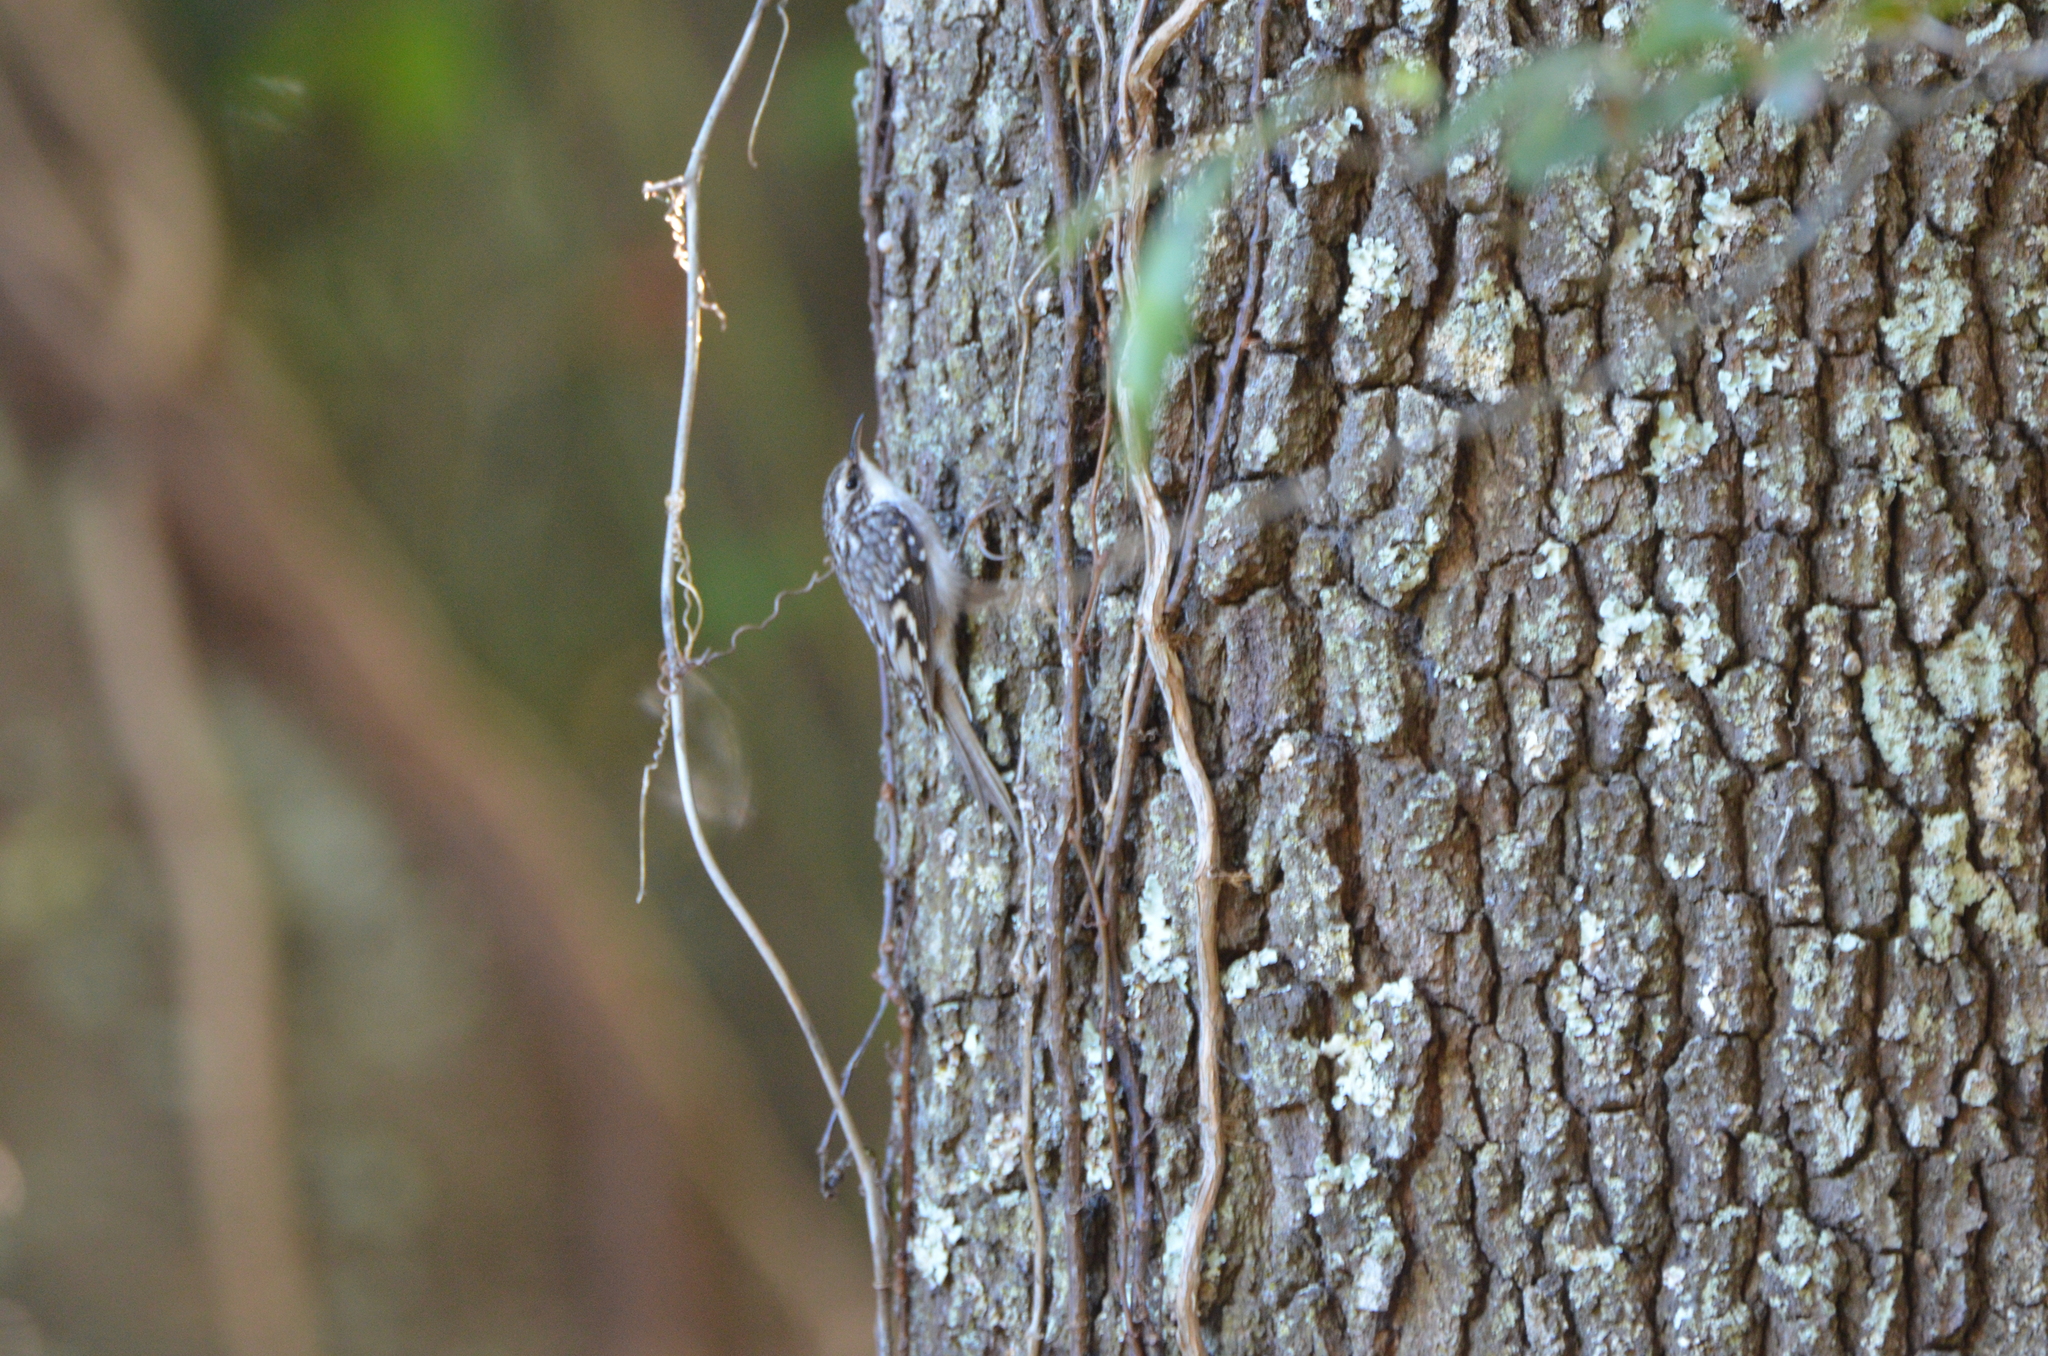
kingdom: Animalia
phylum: Chordata
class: Aves
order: Passeriformes
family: Certhiidae
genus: Certhia
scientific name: Certhia americana
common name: Brown creeper
